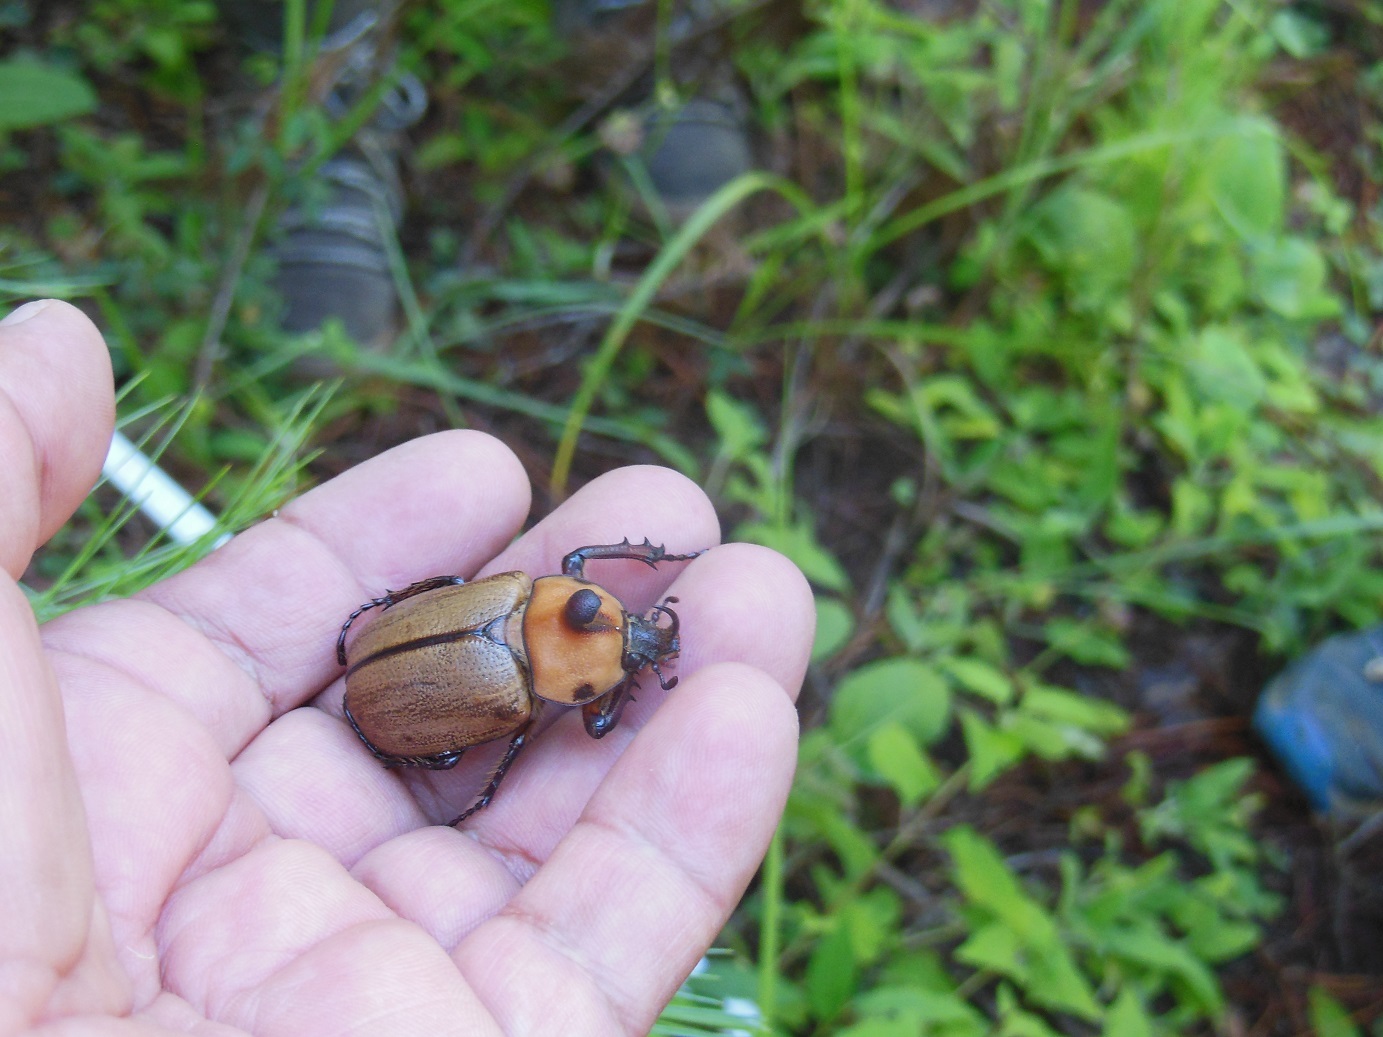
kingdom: Animalia
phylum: Arthropoda
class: Insecta
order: Coleoptera
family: Scarabaeidae
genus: Golofa
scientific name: Golofa pizarro
